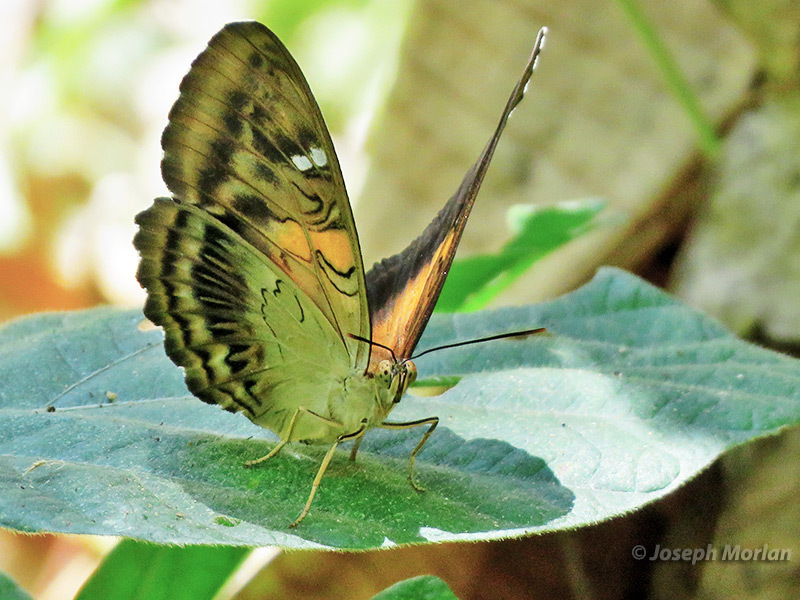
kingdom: Animalia
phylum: Arthropoda
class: Insecta
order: Lepidoptera
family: Nymphalidae
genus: Parthenos
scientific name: Parthenos aspila
